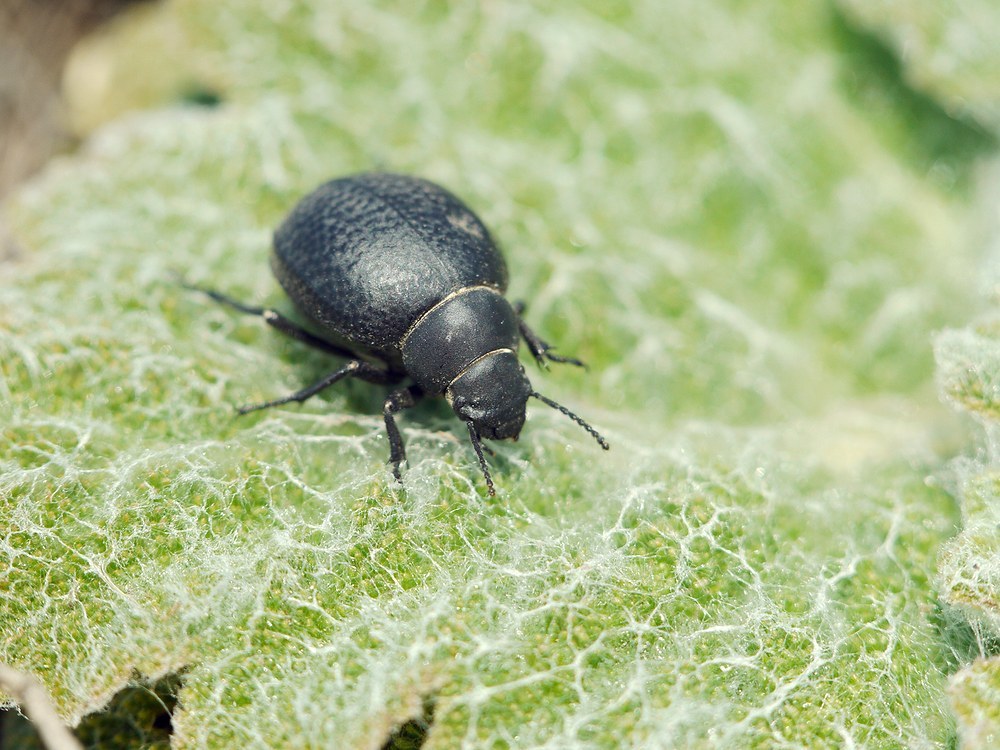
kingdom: Animalia
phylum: Arthropoda
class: Insecta
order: Coleoptera
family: Tenebrionidae
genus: Pimelia
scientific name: Pimelia subglobosa
